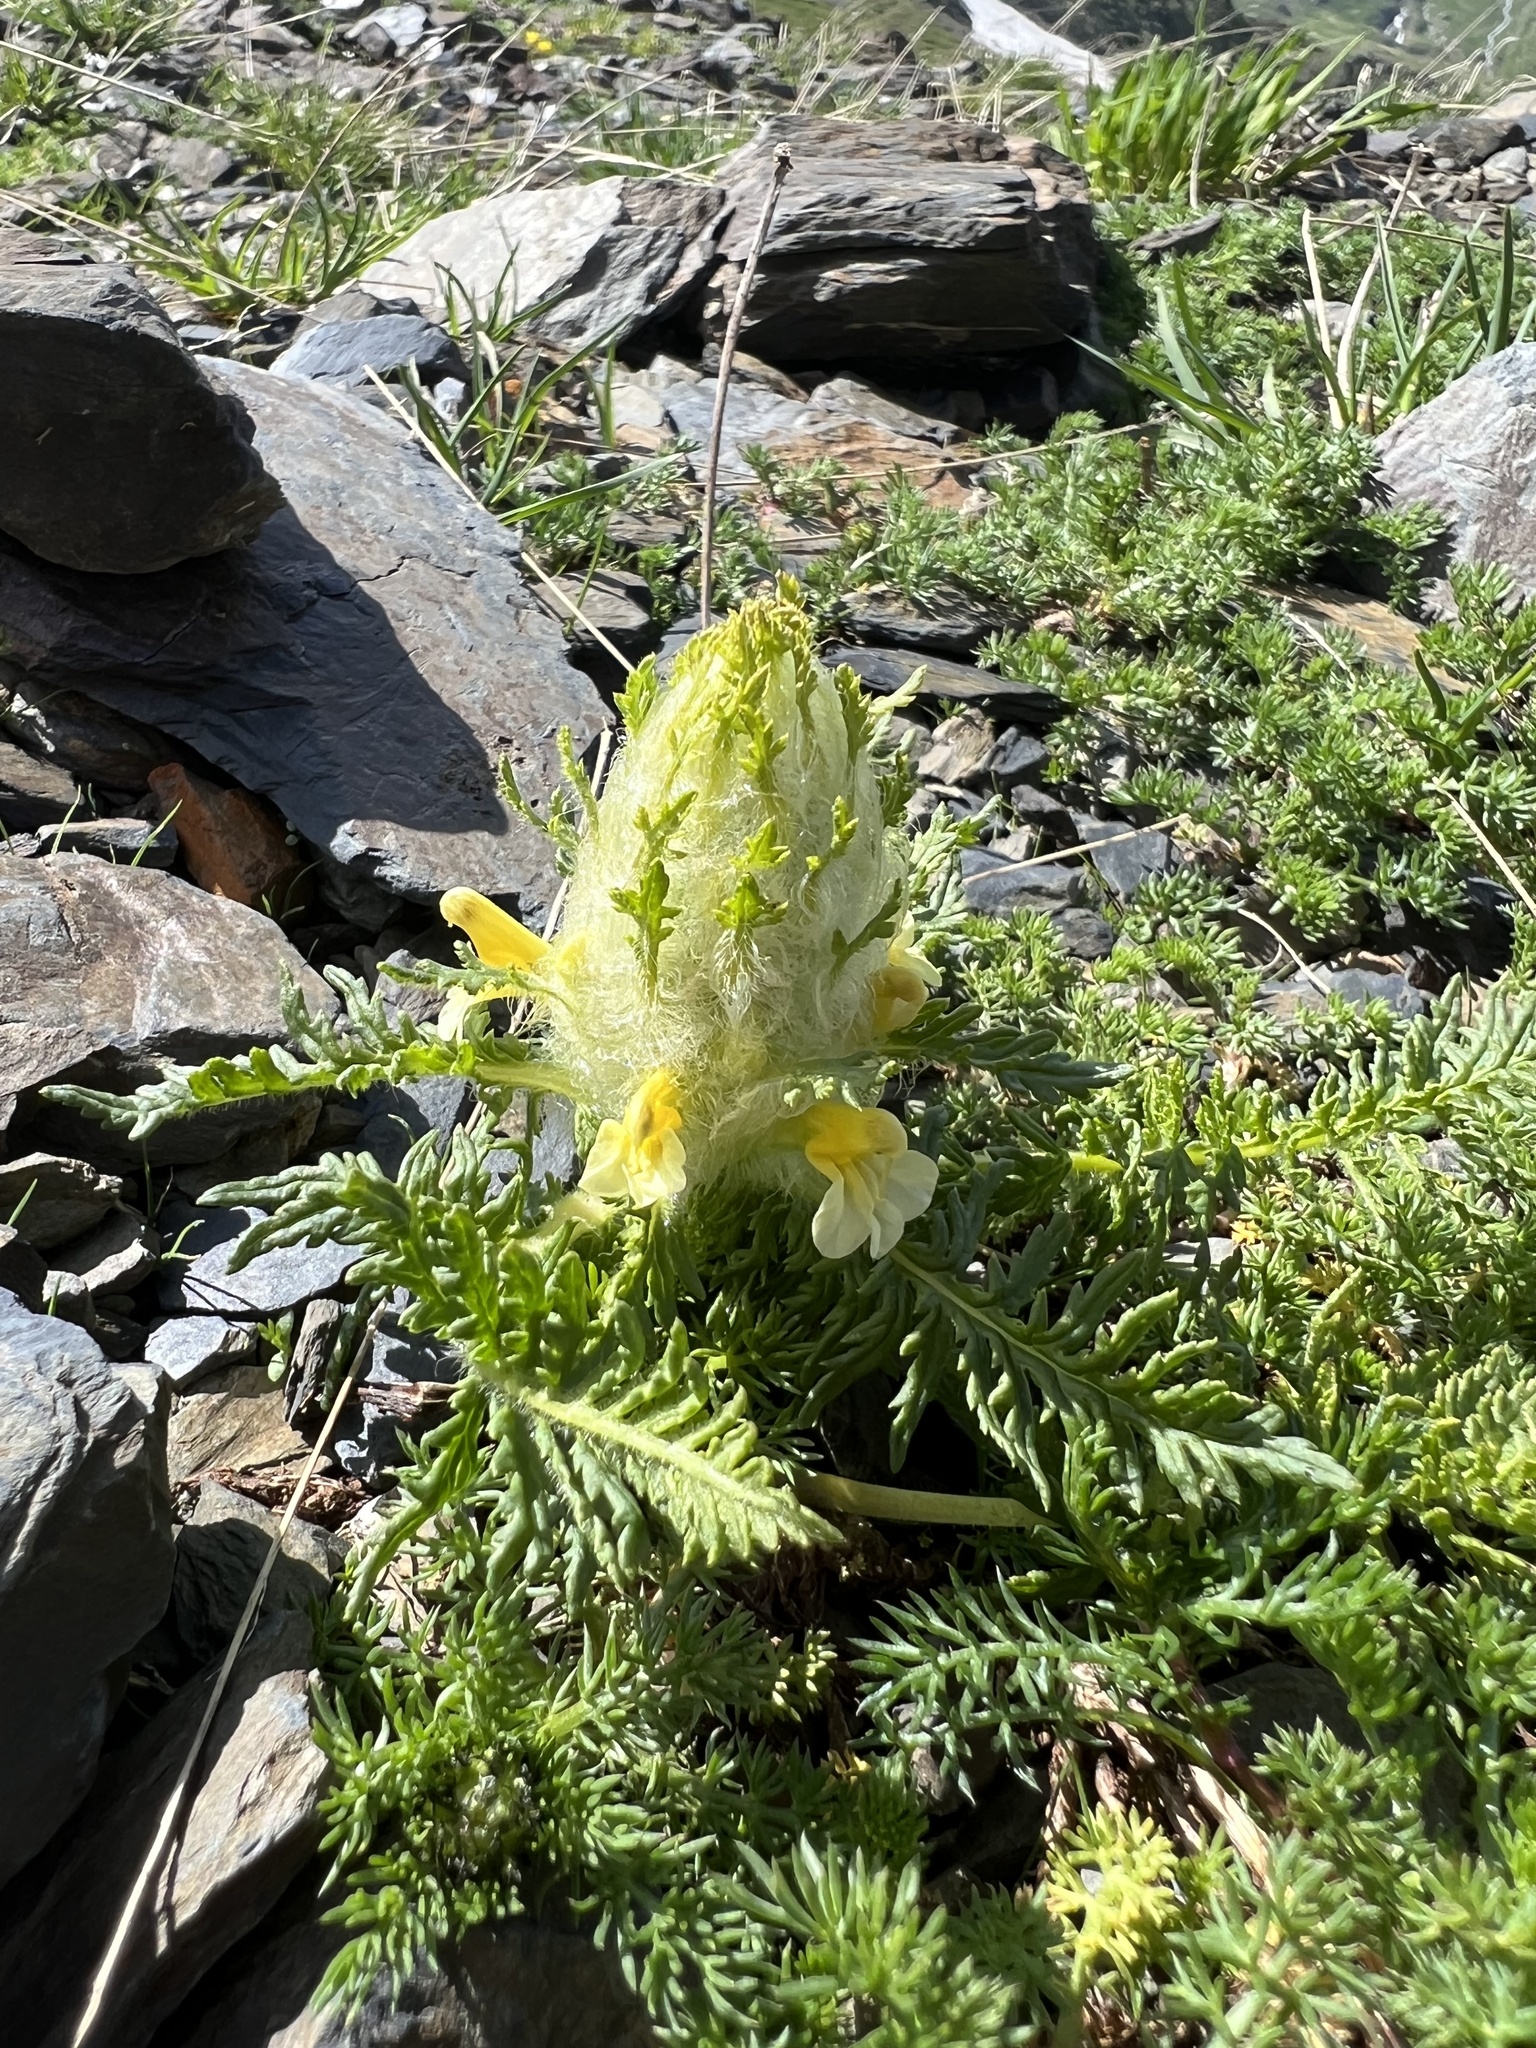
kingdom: Plantae
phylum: Tracheophyta
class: Magnoliopsida
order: Lamiales
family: Orobanchaceae
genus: Pedicularis
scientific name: Pedicularis condensata
